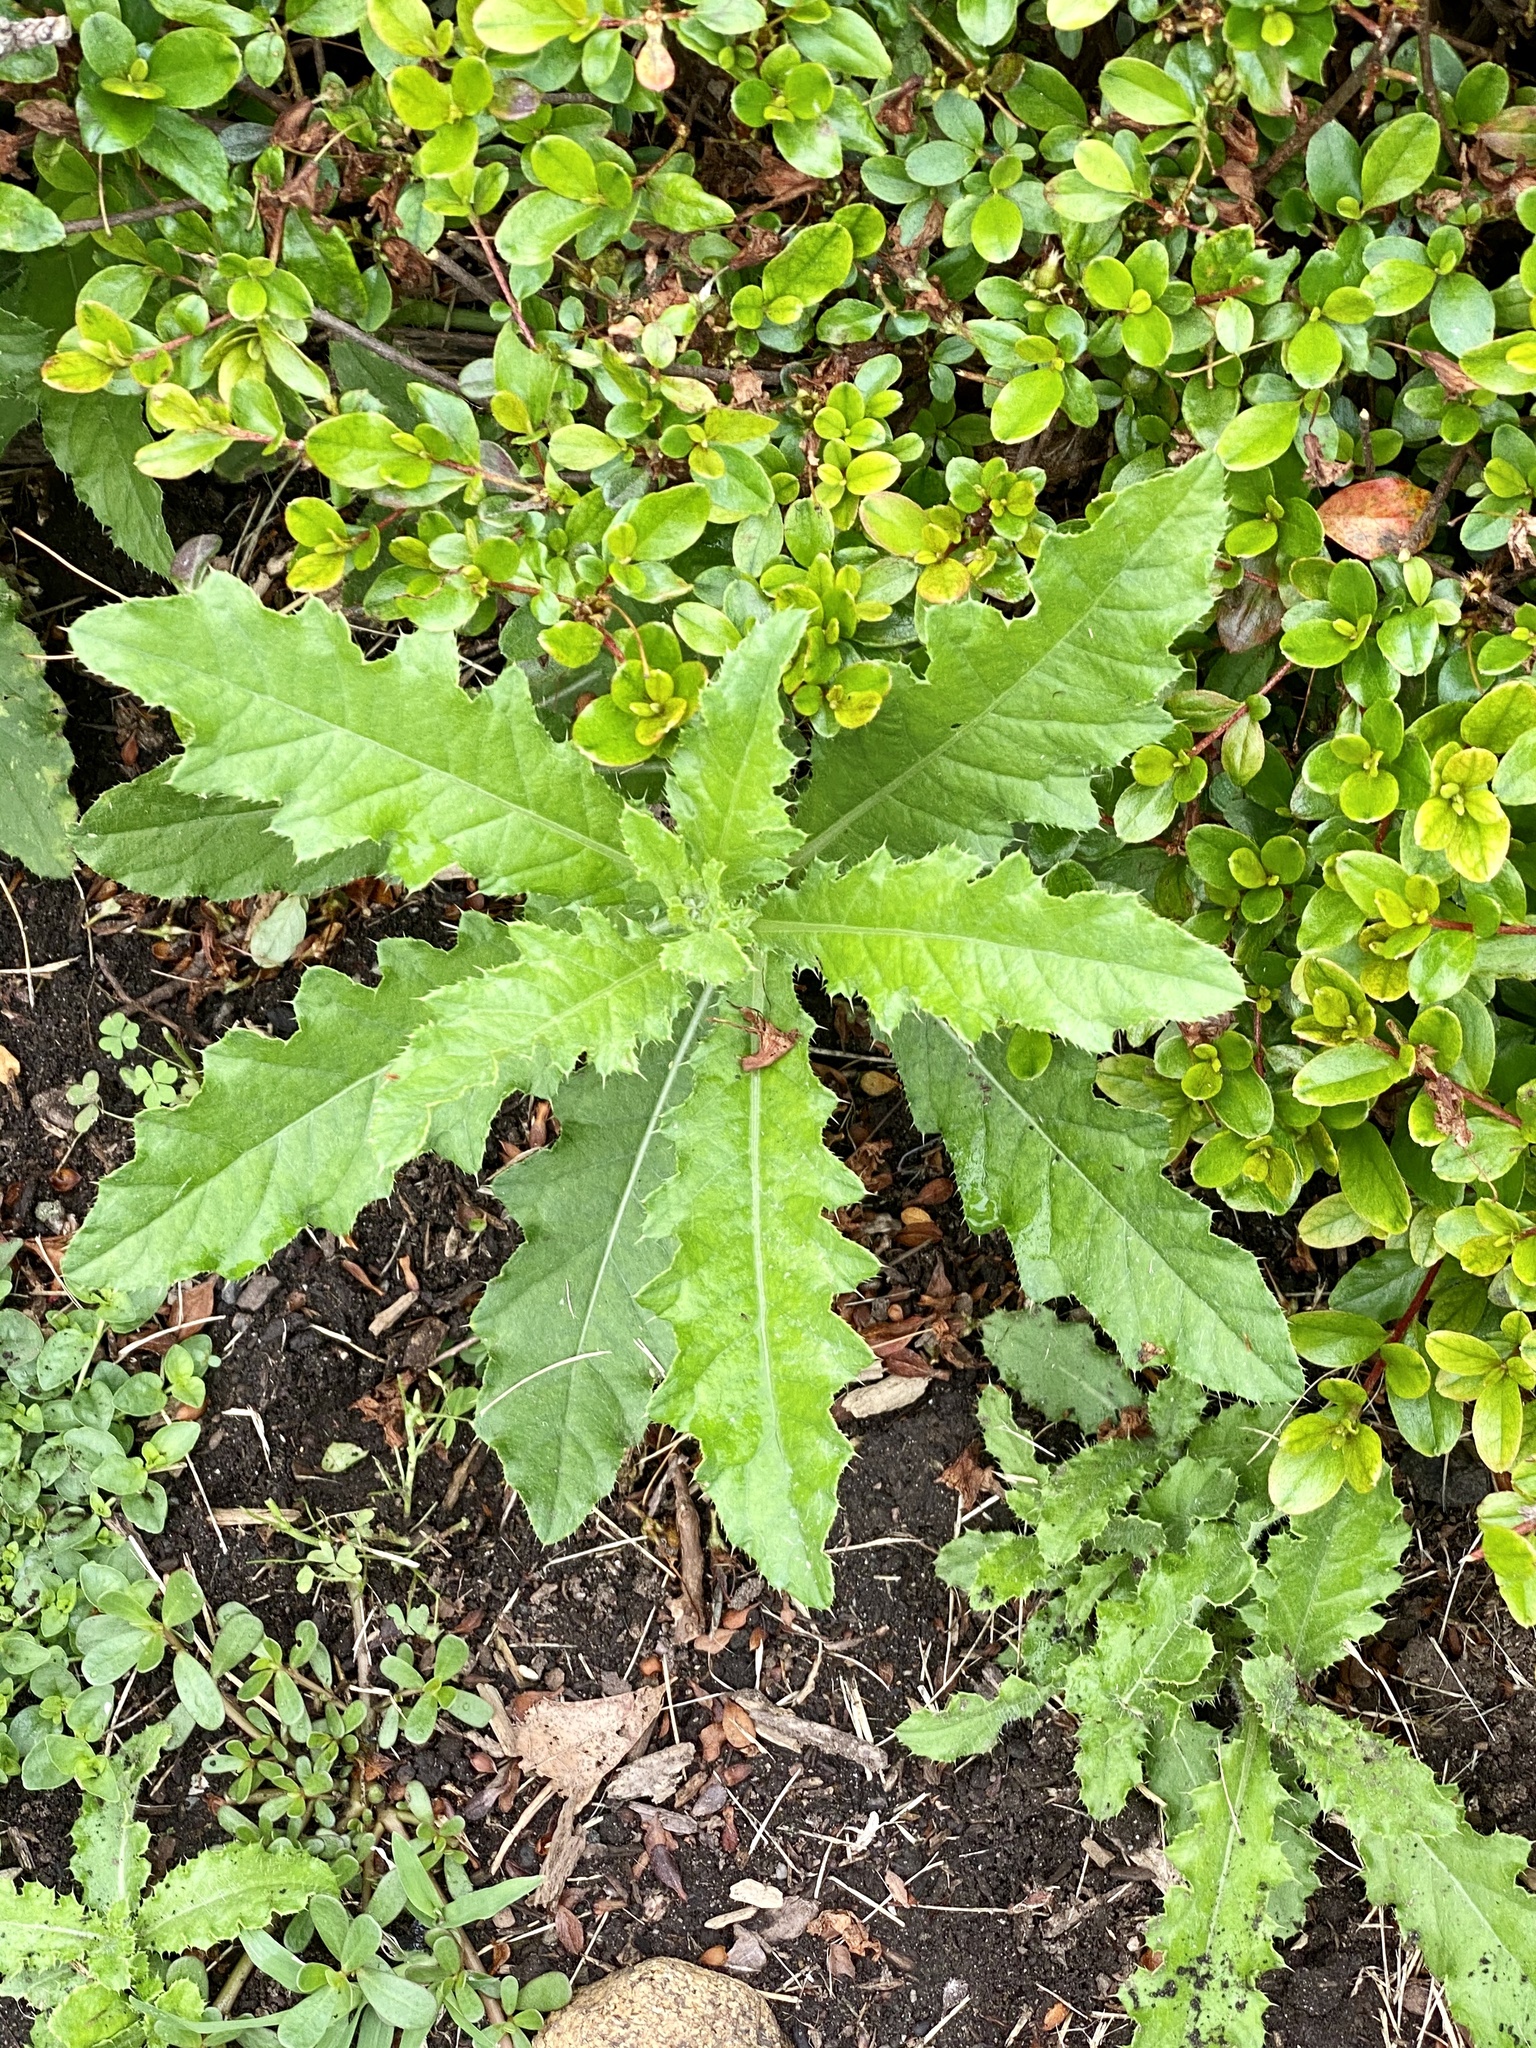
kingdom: Plantae
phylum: Tracheophyta
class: Magnoliopsida
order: Asterales
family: Asteraceae
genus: Cirsium
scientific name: Cirsium arvense
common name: Creeping thistle
